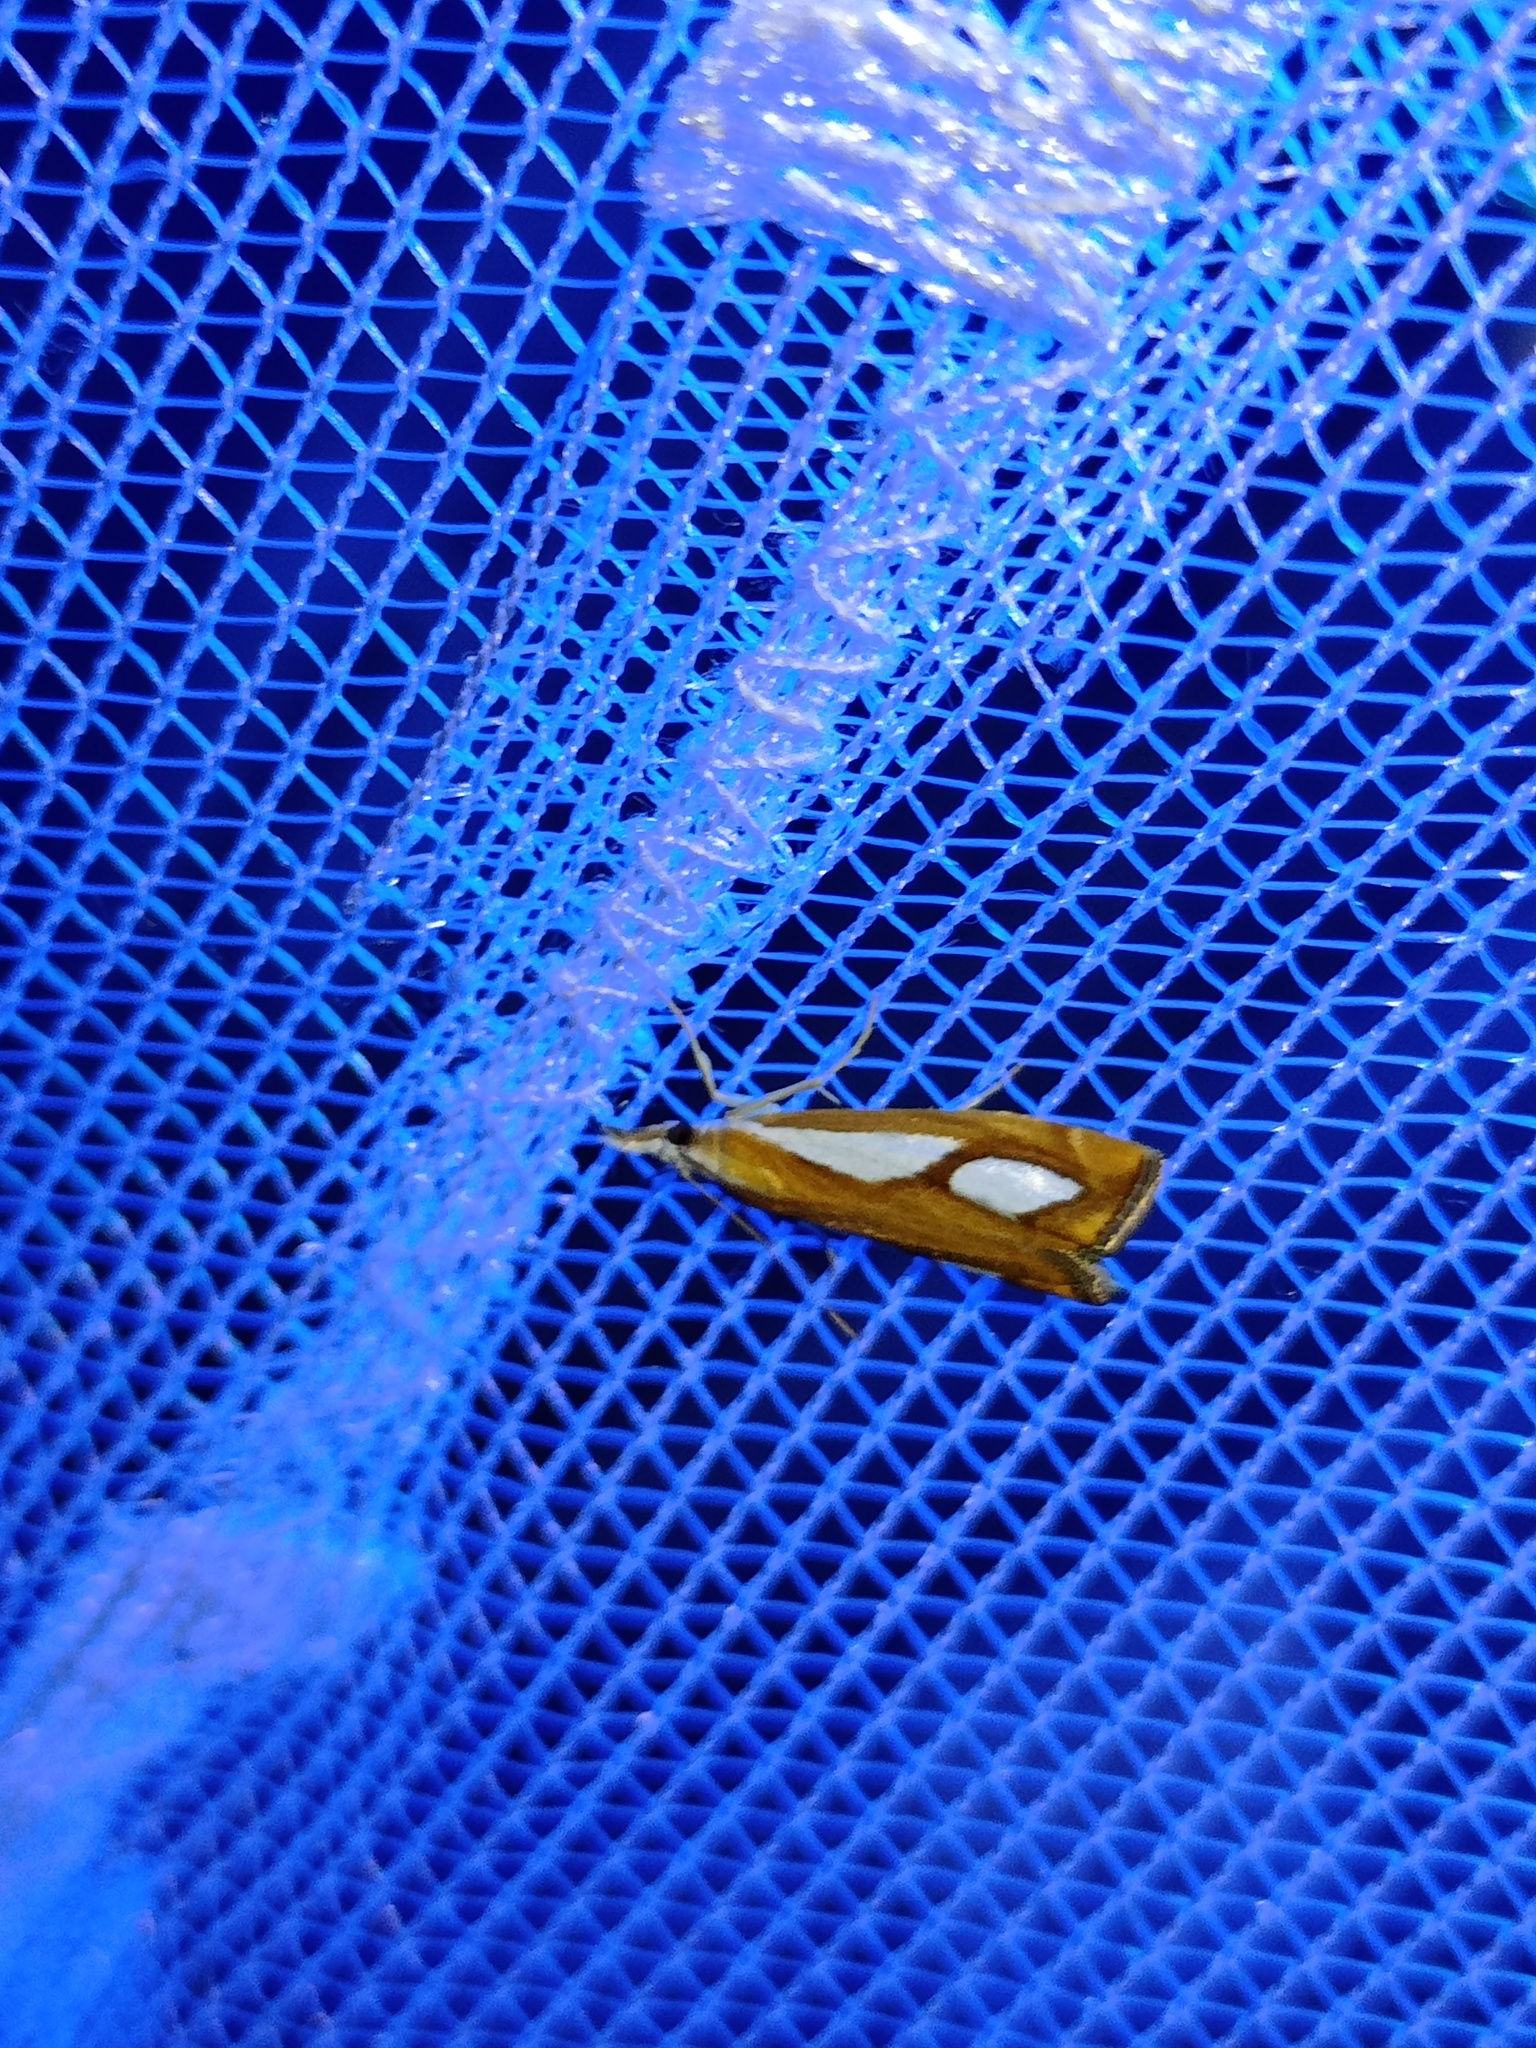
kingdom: Animalia
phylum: Arthropoda
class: Insecta
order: Lepidoptera
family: Crambidae
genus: Catoptria
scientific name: Catoptria pinella
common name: Pearl grass-veneer
